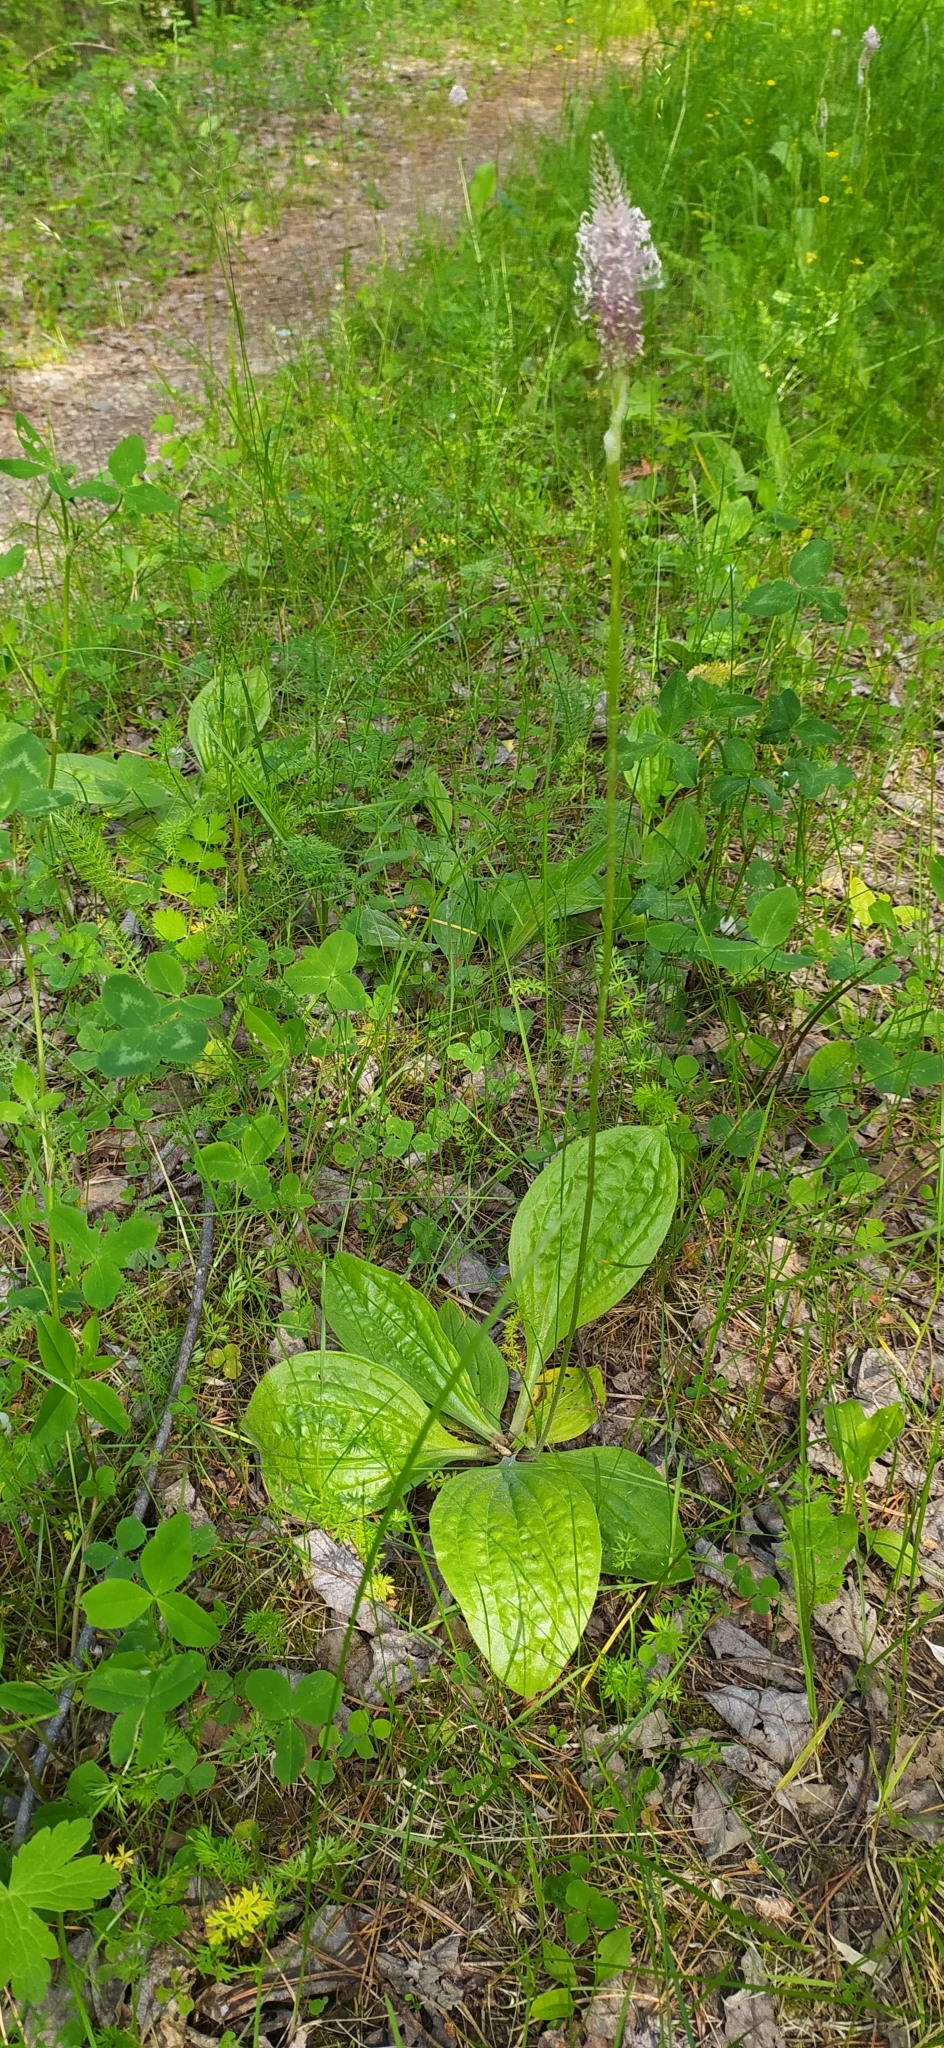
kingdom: Plantae
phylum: Tracheophyta
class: Magnoliopsida
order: Lamiales
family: Plantaginaceae
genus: Plantago
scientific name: Plantago media
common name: Hoary plantain
